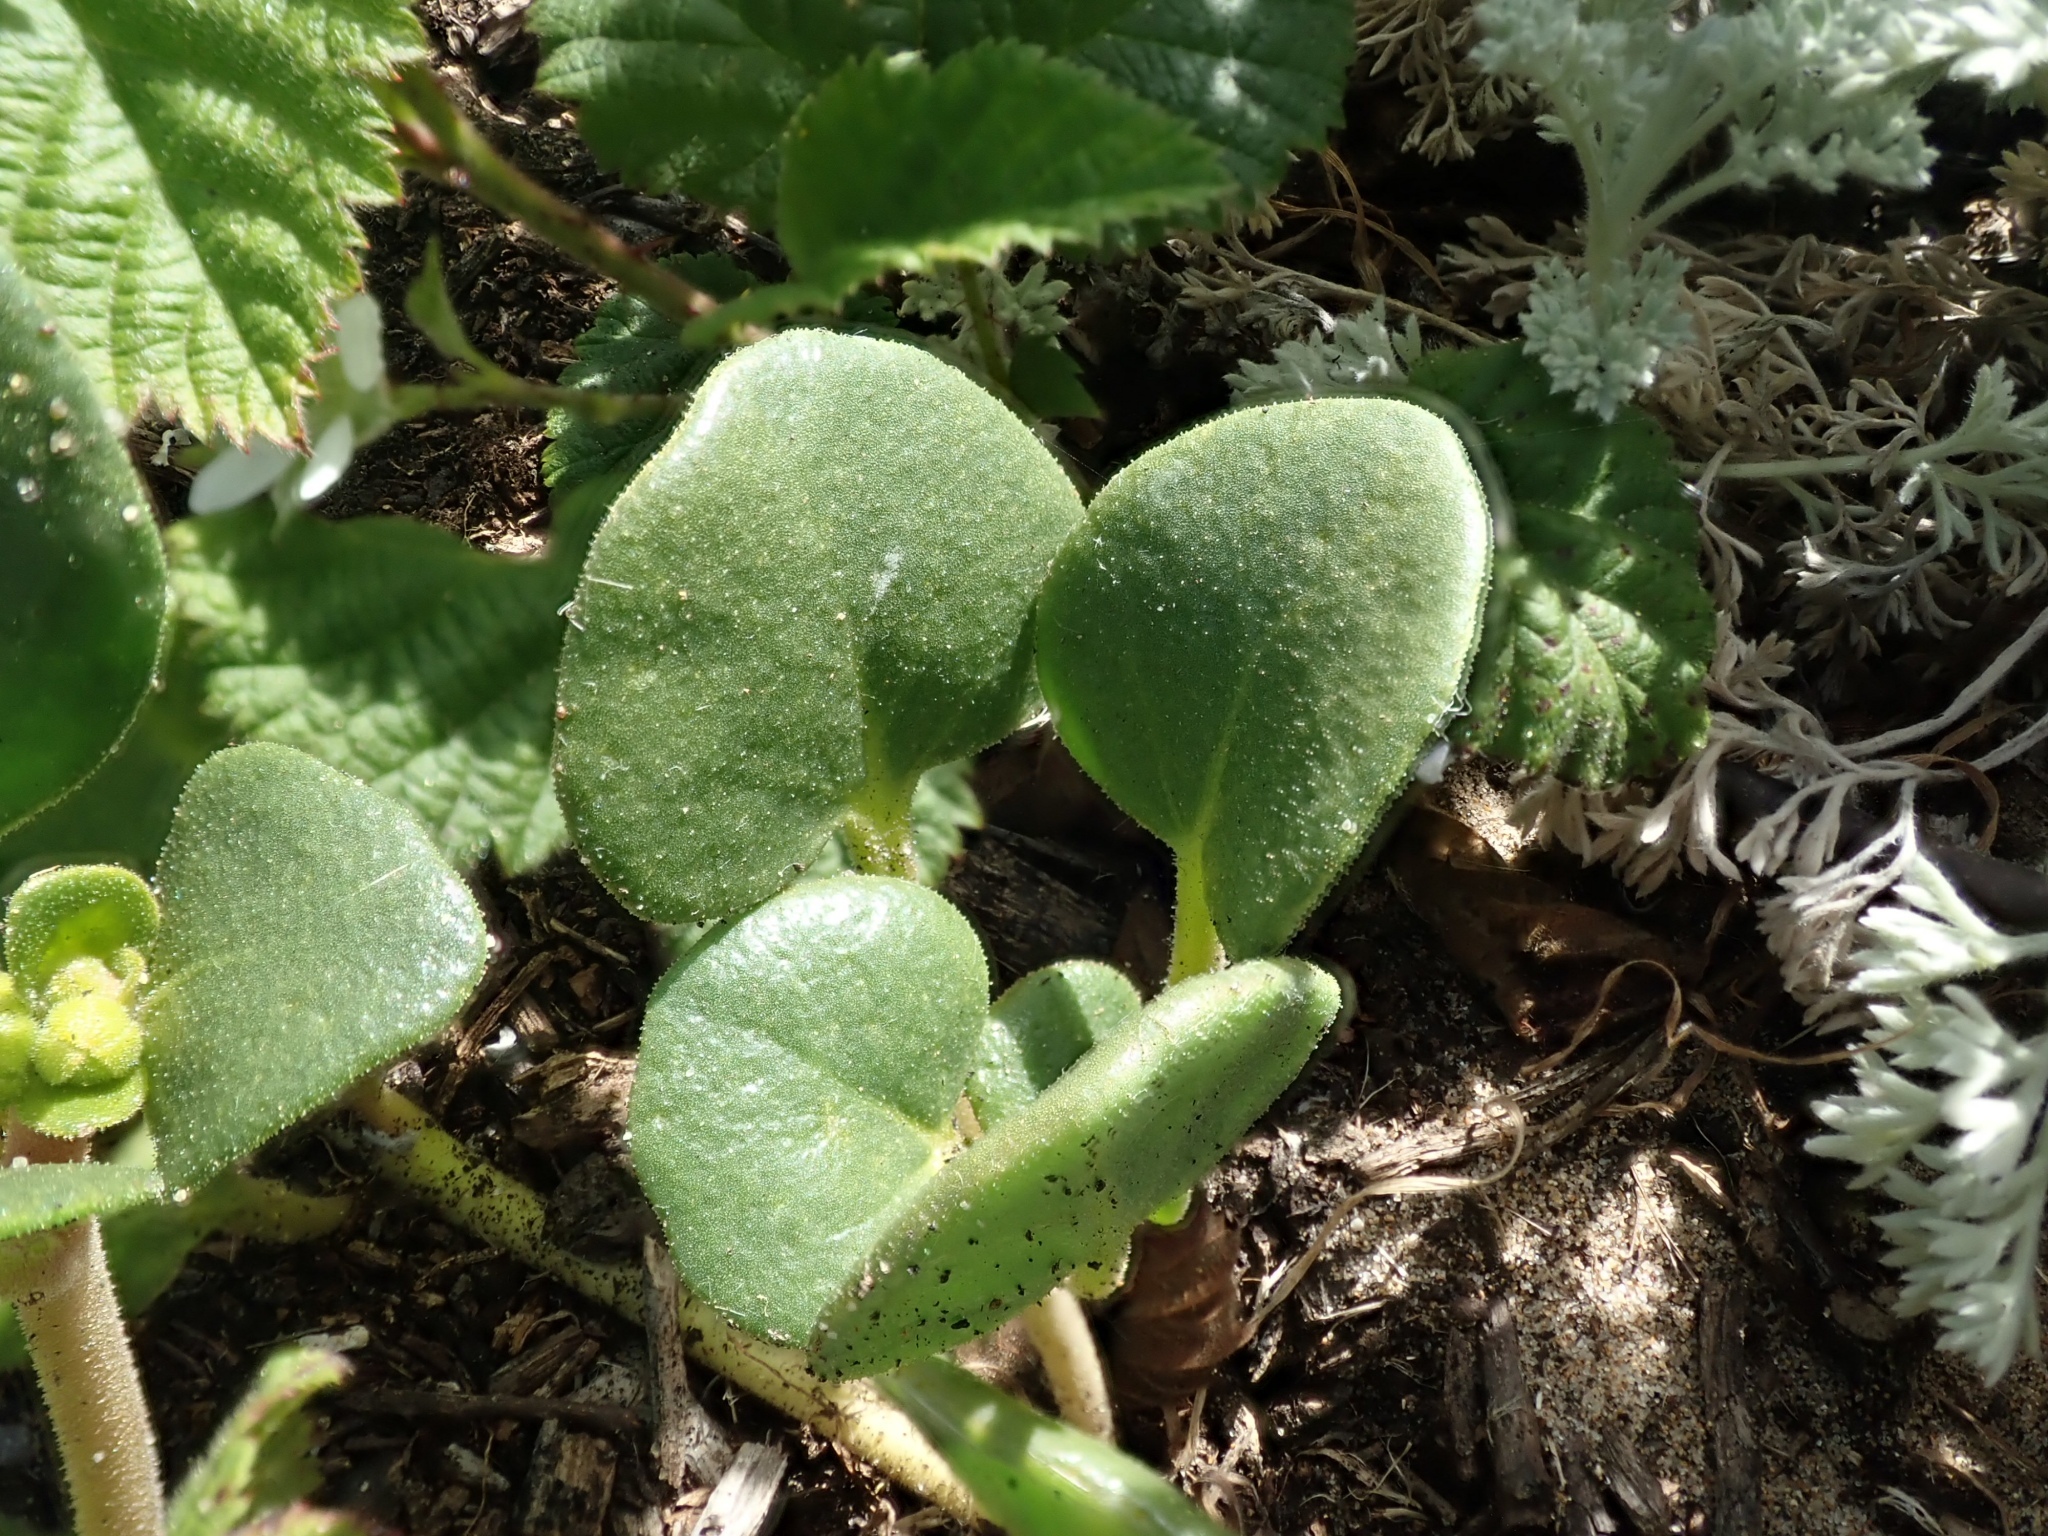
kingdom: Plantae
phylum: Tracheophyta
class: Magnoliopsida
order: Caryophyllales
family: Nyctaginaceae
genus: Abronia
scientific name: Abronia latifolia
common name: Yellow sand-verbena
